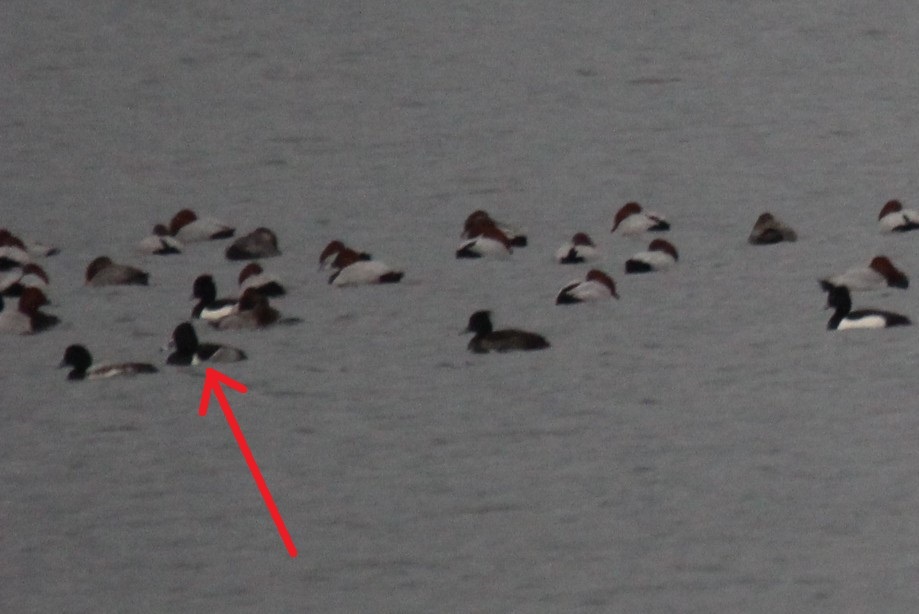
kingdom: Animalia
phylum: Chordata
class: Aves
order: Anseriformes
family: Anatidae
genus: Aythya
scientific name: Aythya collaris
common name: Ring-necked duck
